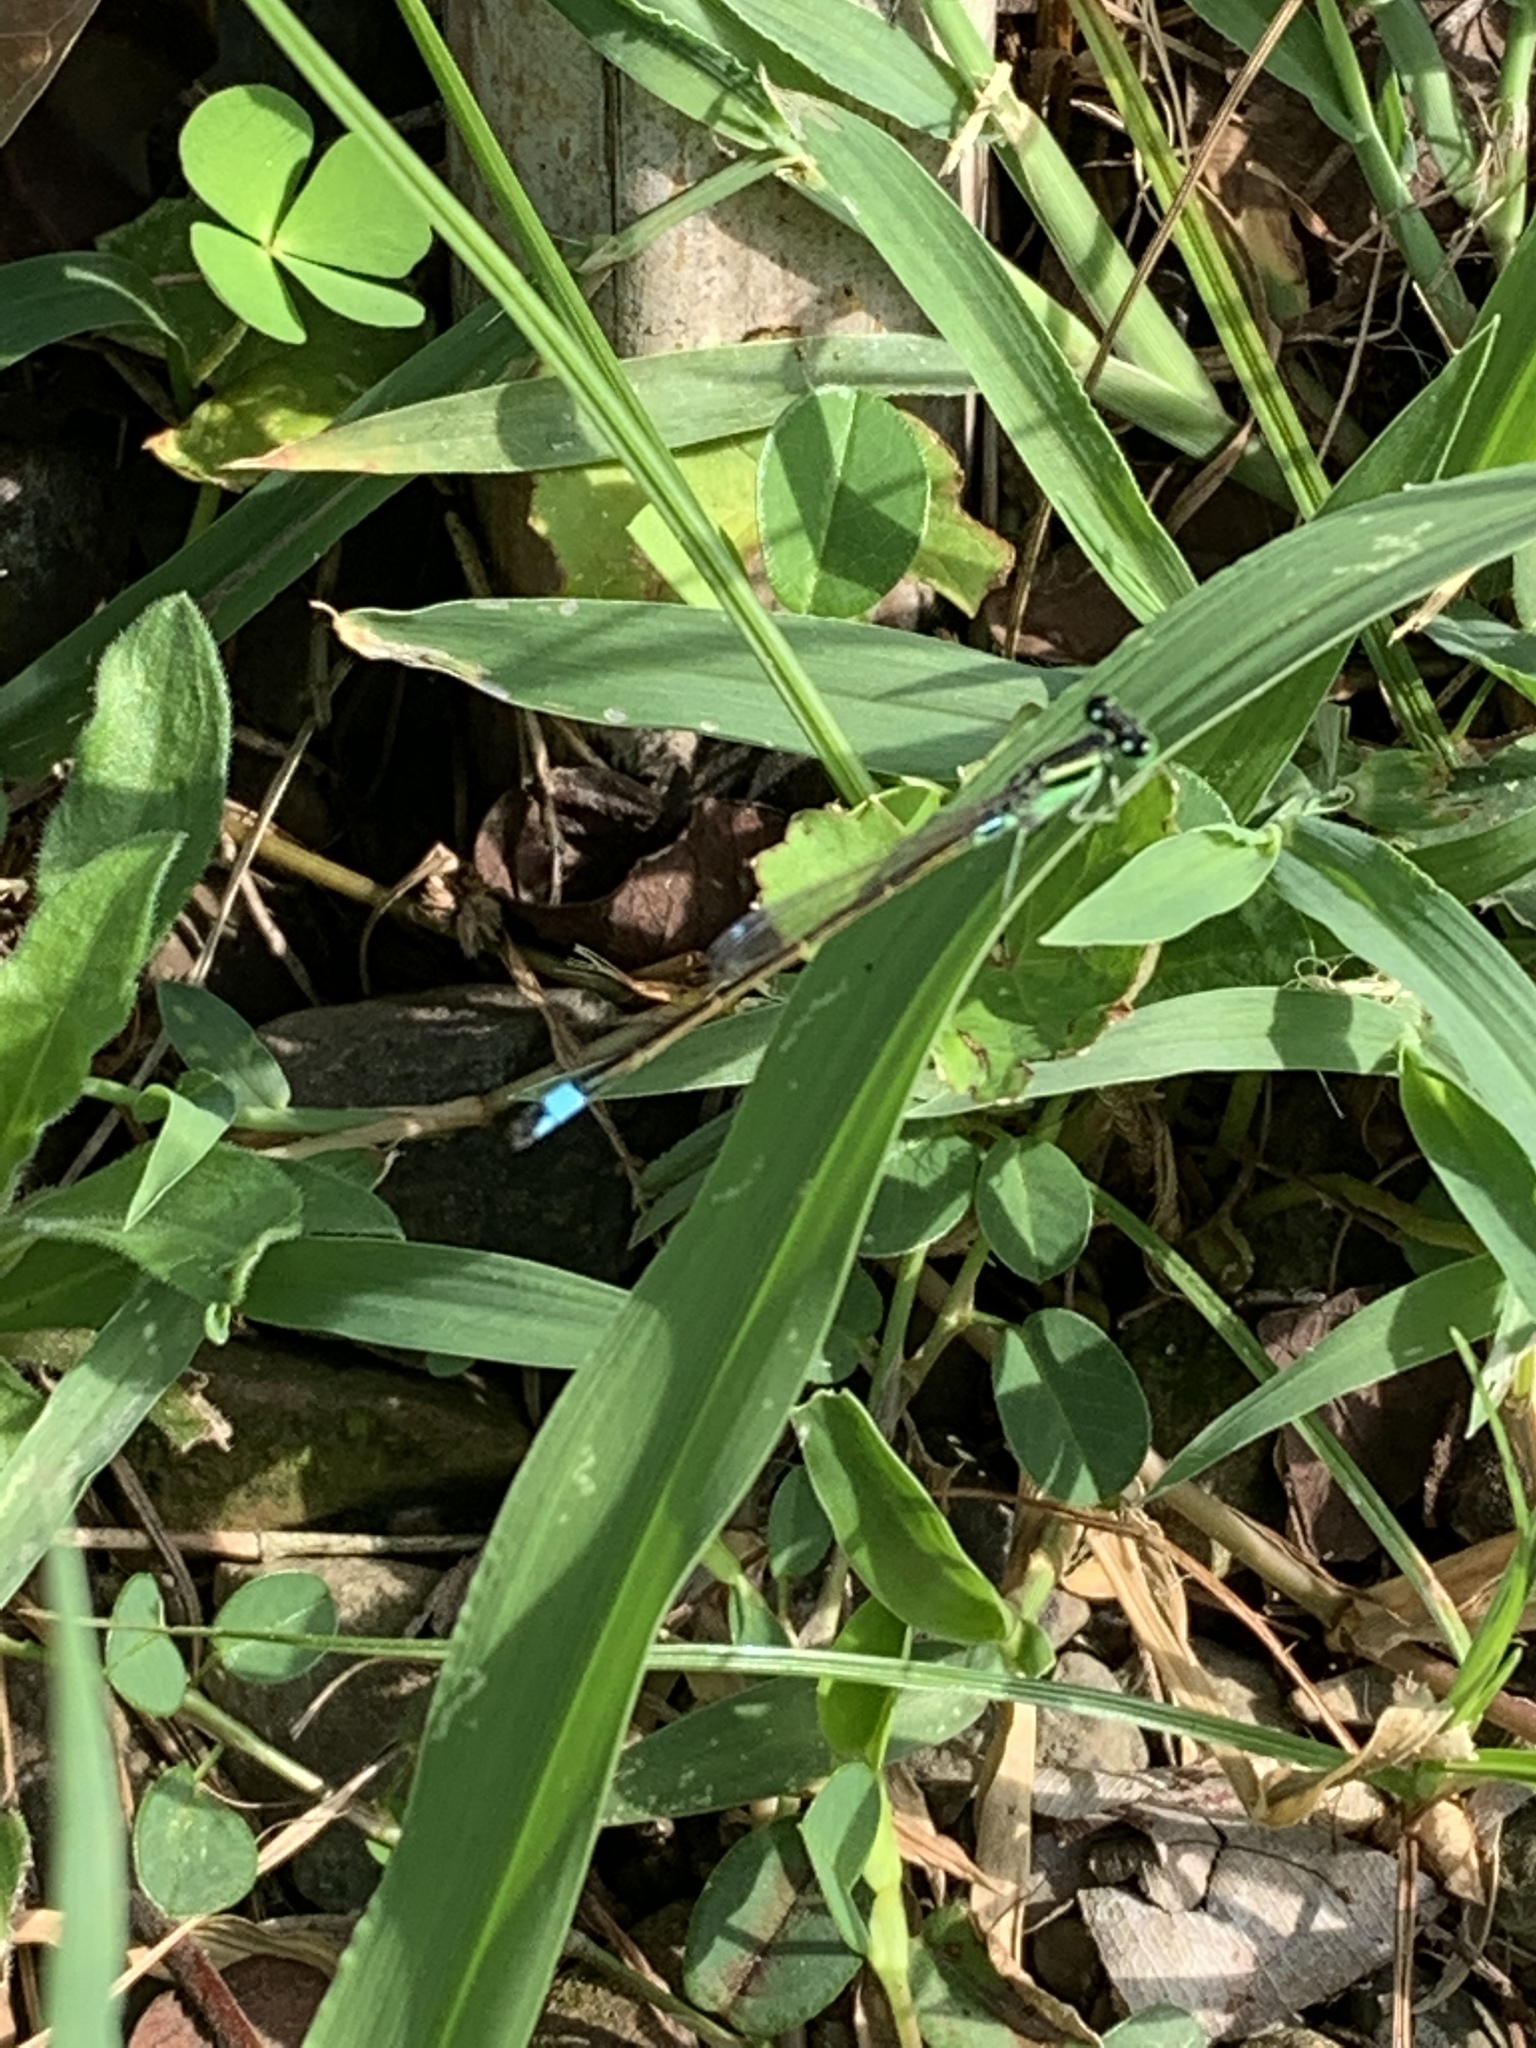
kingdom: Animalia
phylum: Arthropoda
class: Insecta
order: Odonata
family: Coenagrionidae
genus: Ischnura
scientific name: Ischnura senegalensis
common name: Tropical bluetail
